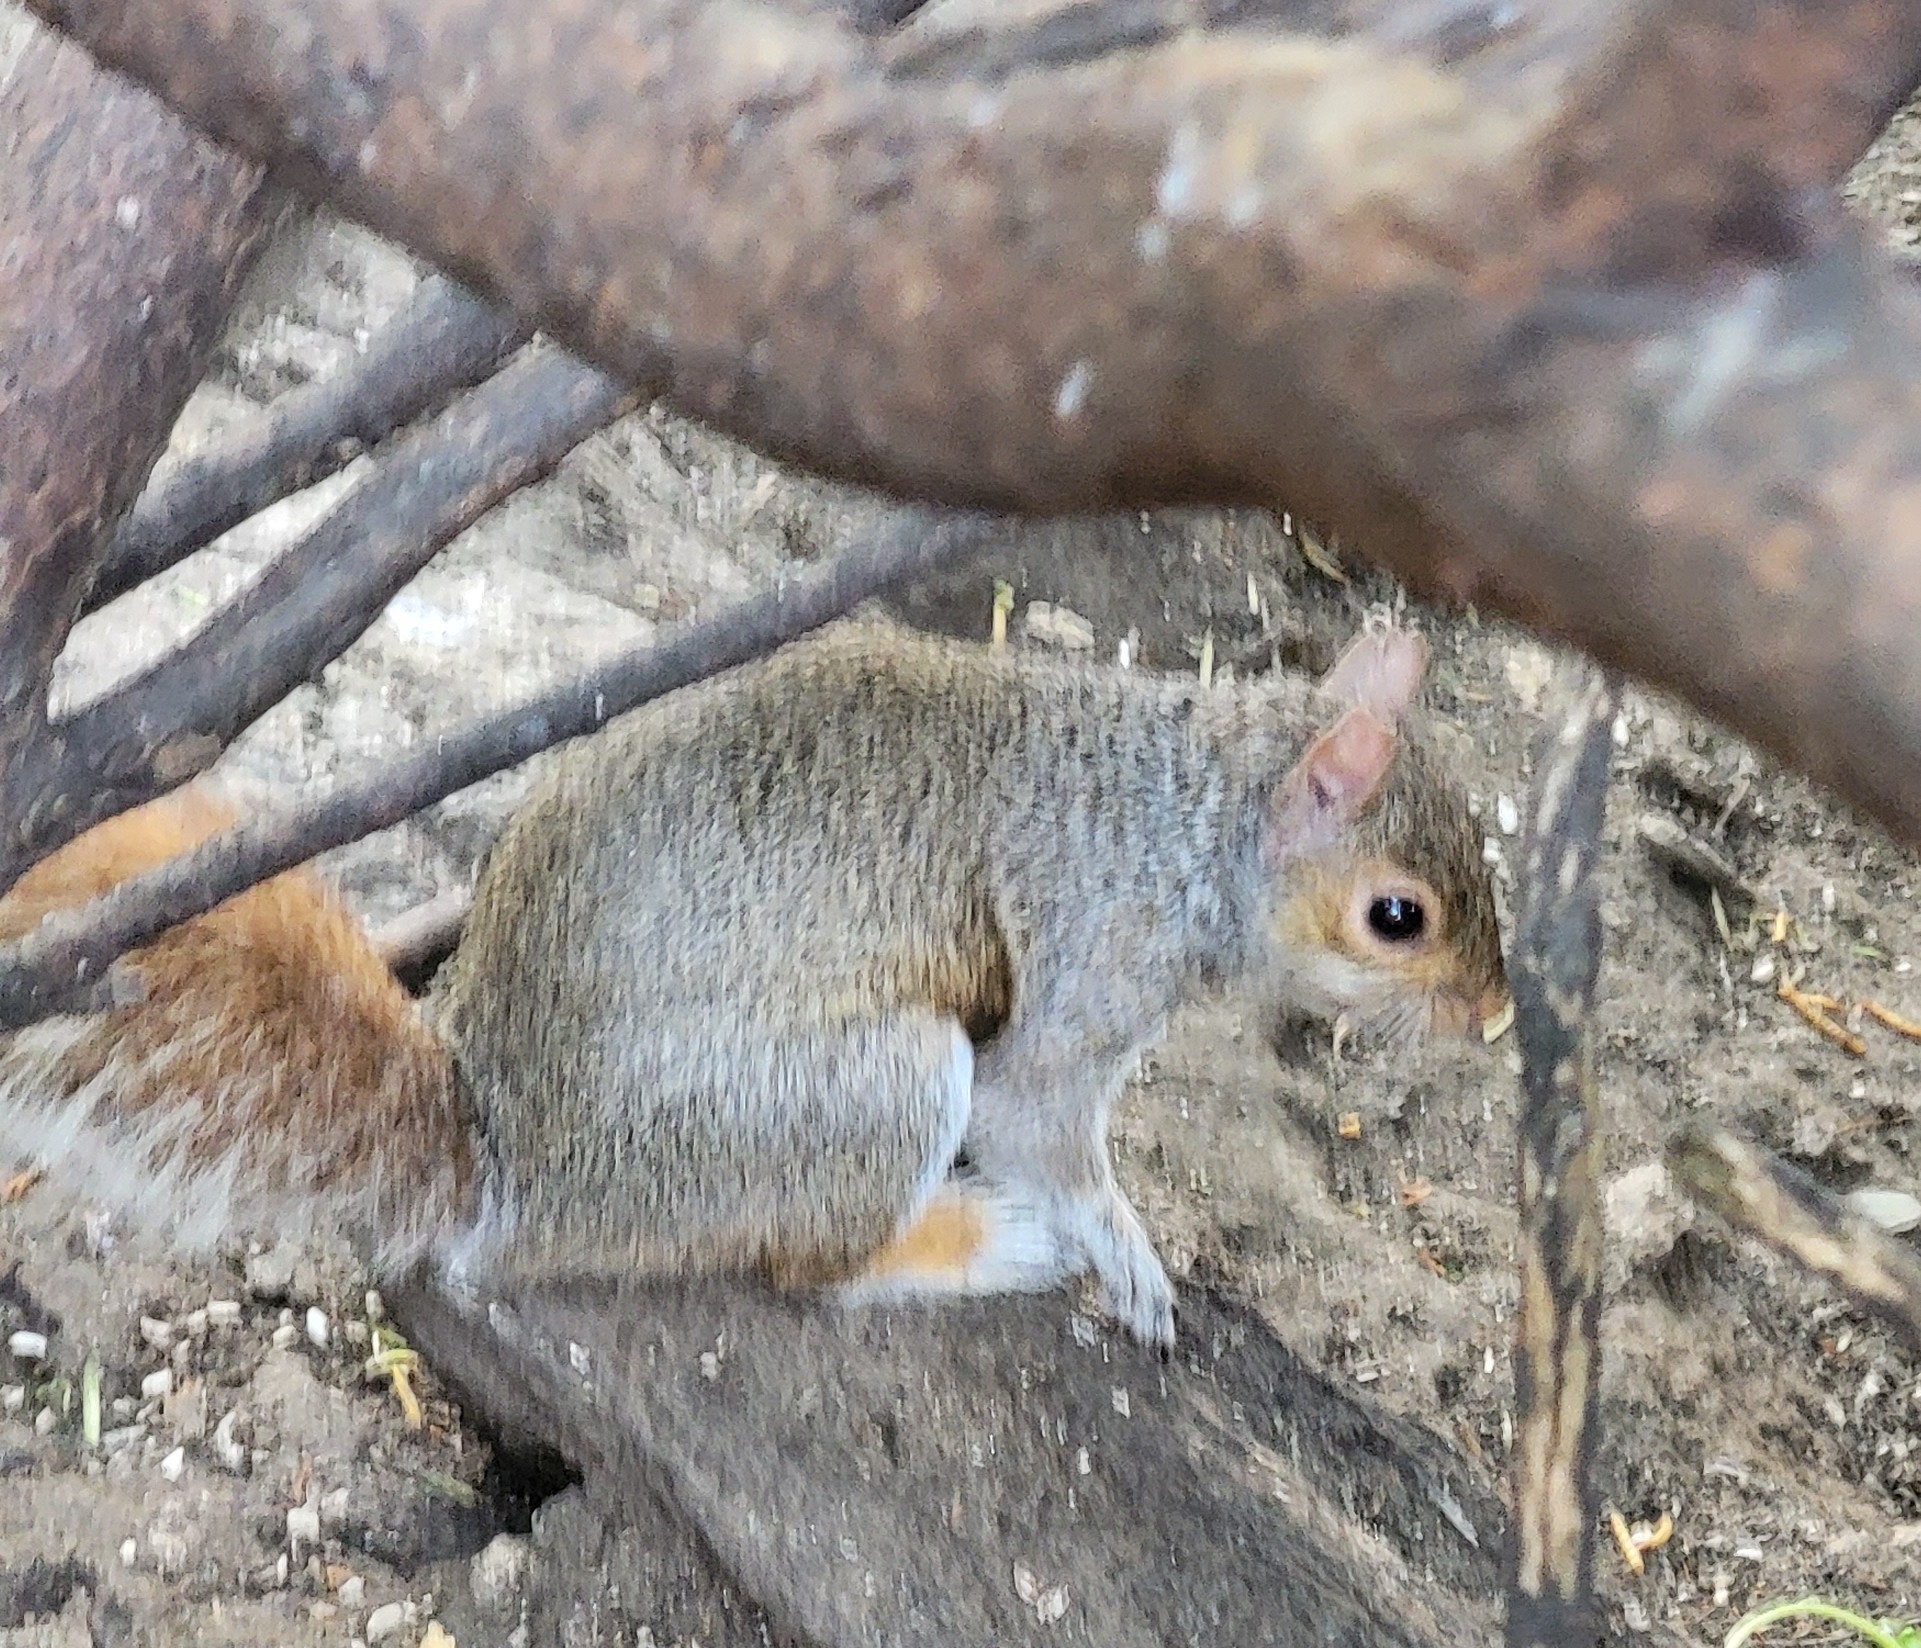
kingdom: Animalia
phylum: Chordata
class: Mammalia
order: Rodentia
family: Sciuridae
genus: Sciurus
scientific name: Sciurus carolinensis
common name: Eastern gray squirrel
